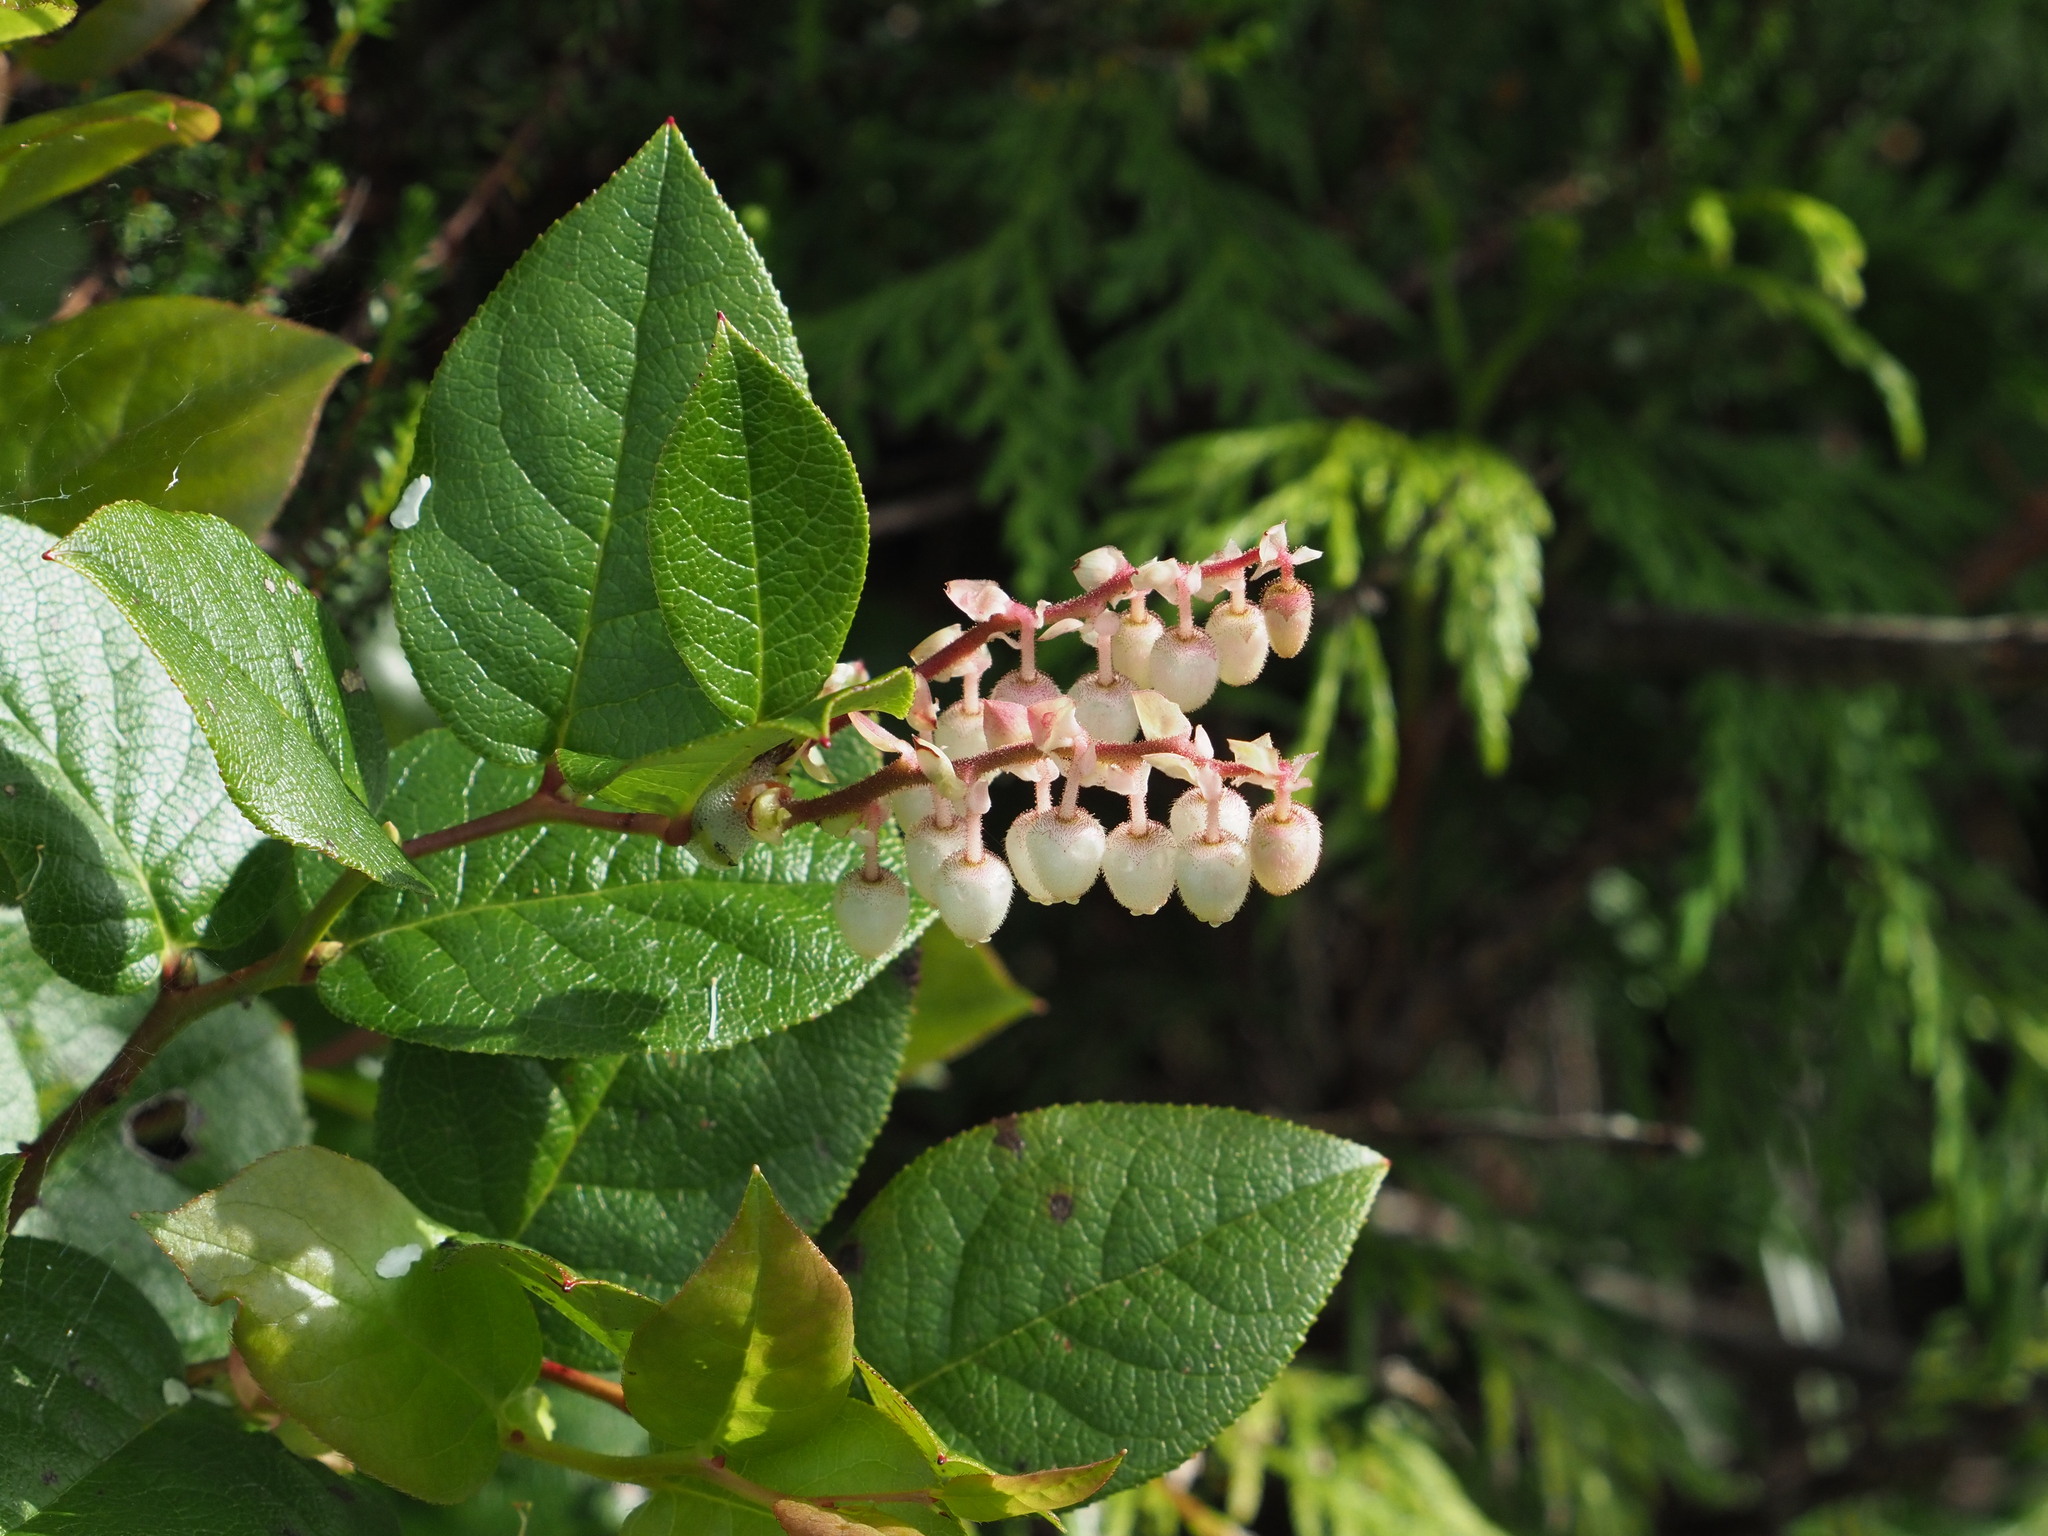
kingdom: Plantae
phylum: Tracheophyta
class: Magnoliopsida
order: Ericales
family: Ericaceae
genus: Gaultheria
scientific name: Gaultheria shallon
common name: Shallon
